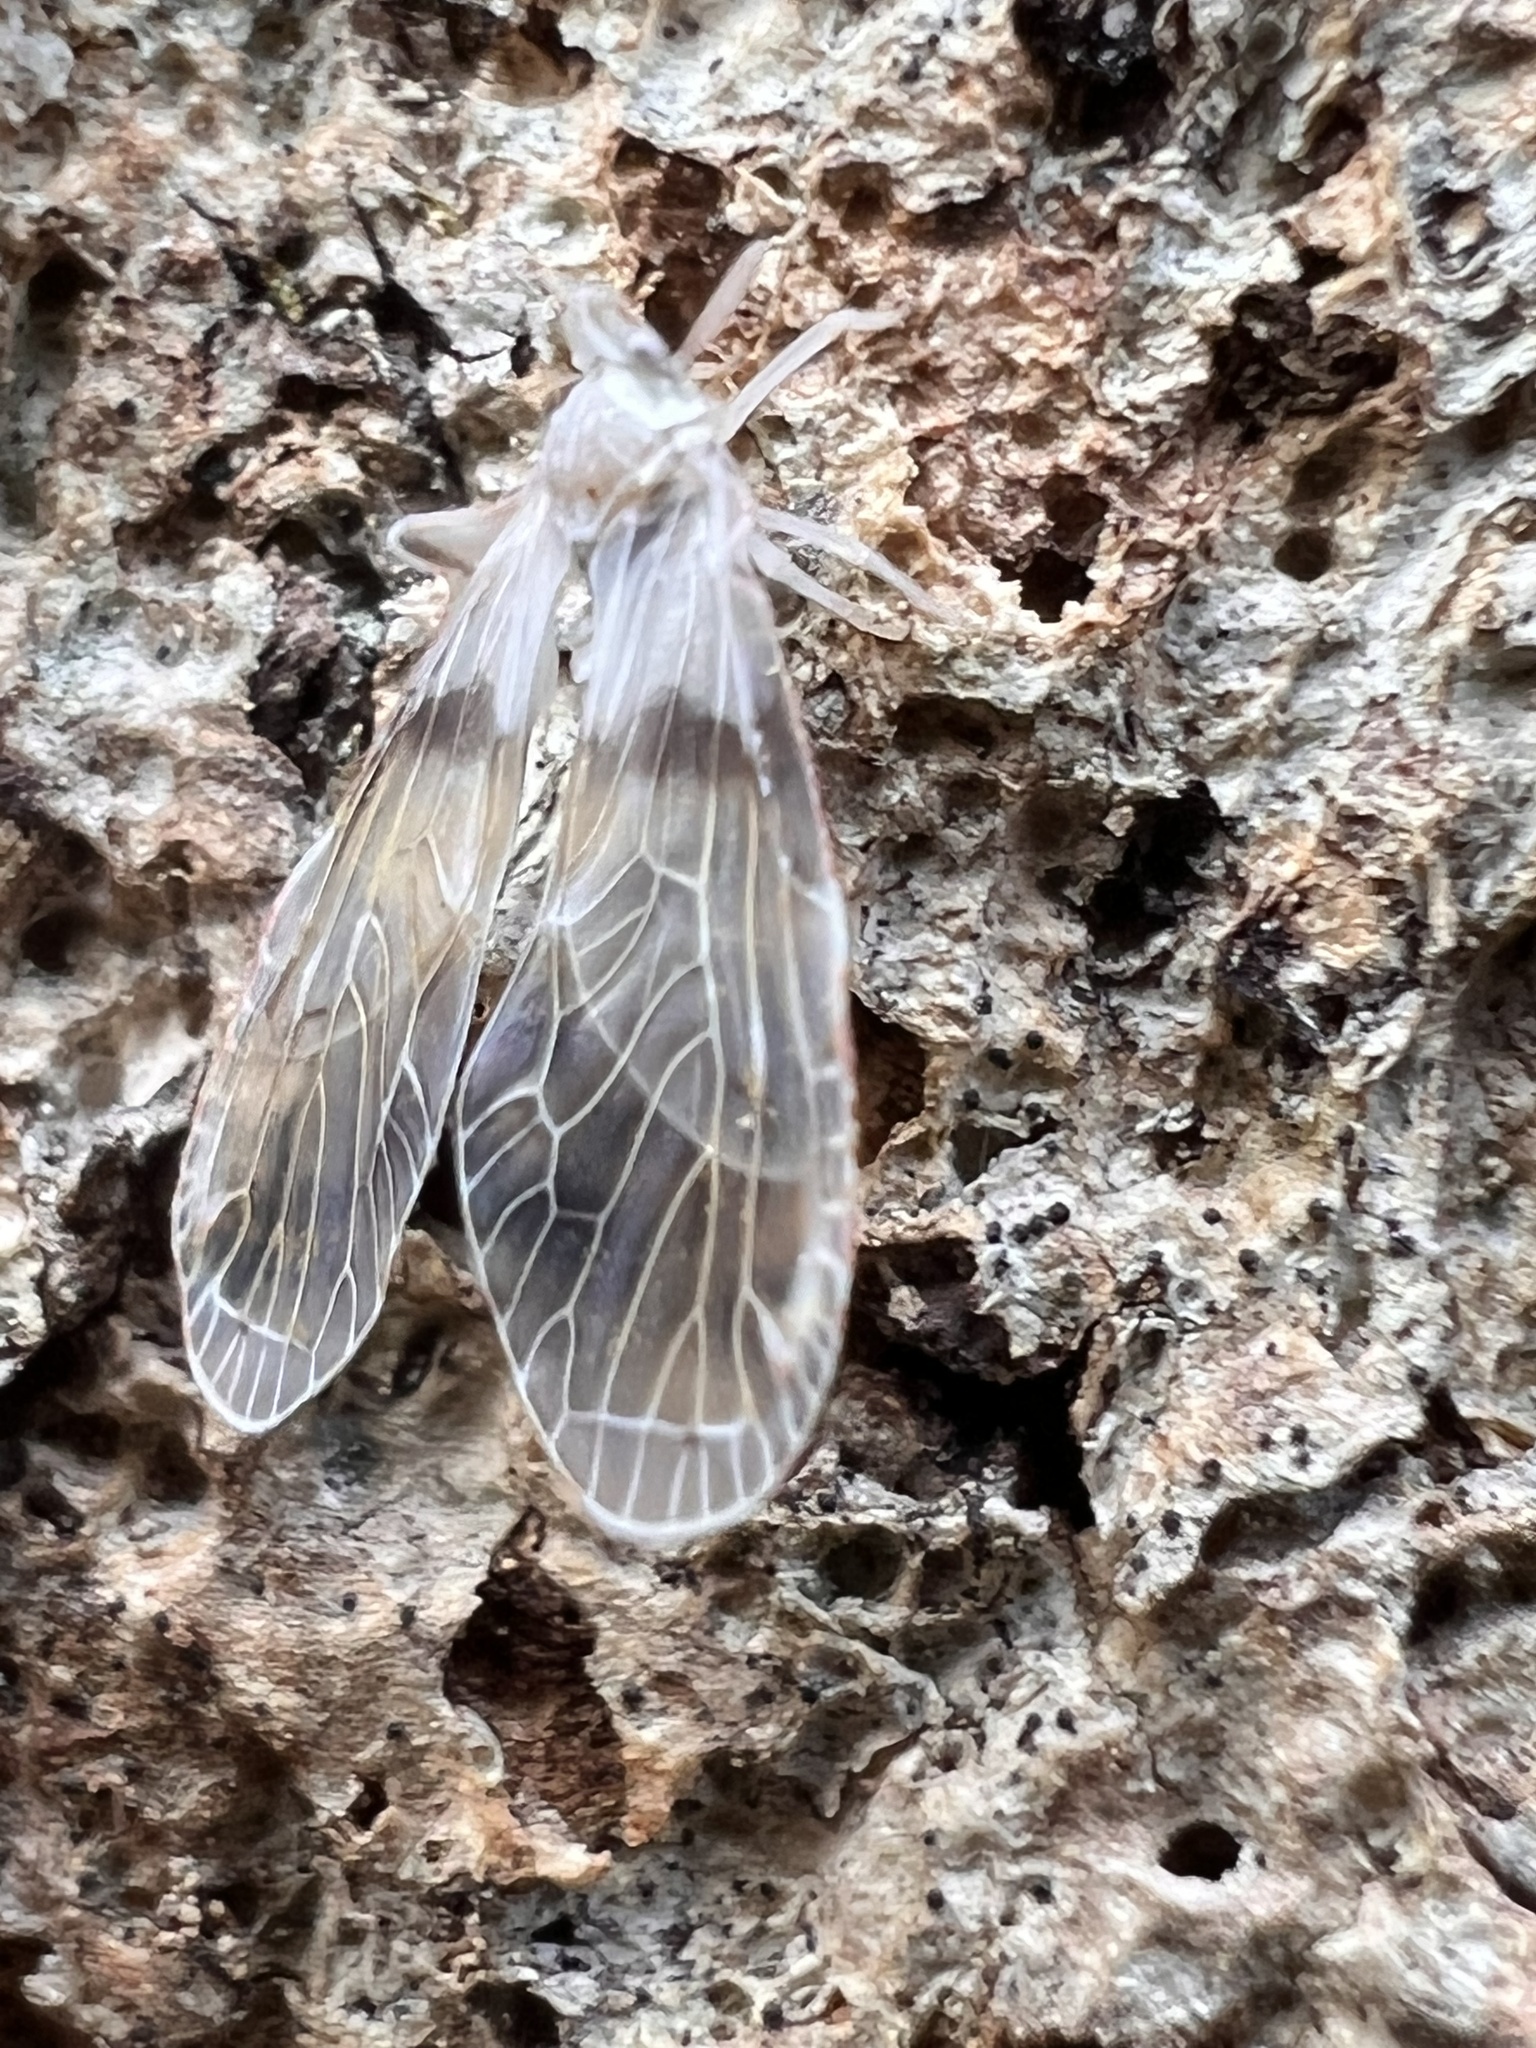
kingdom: Animalia
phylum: Arthropoda
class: Insecta
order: Hemiptera
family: Derbidae
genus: Sayiana
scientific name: Sayiana sayi
